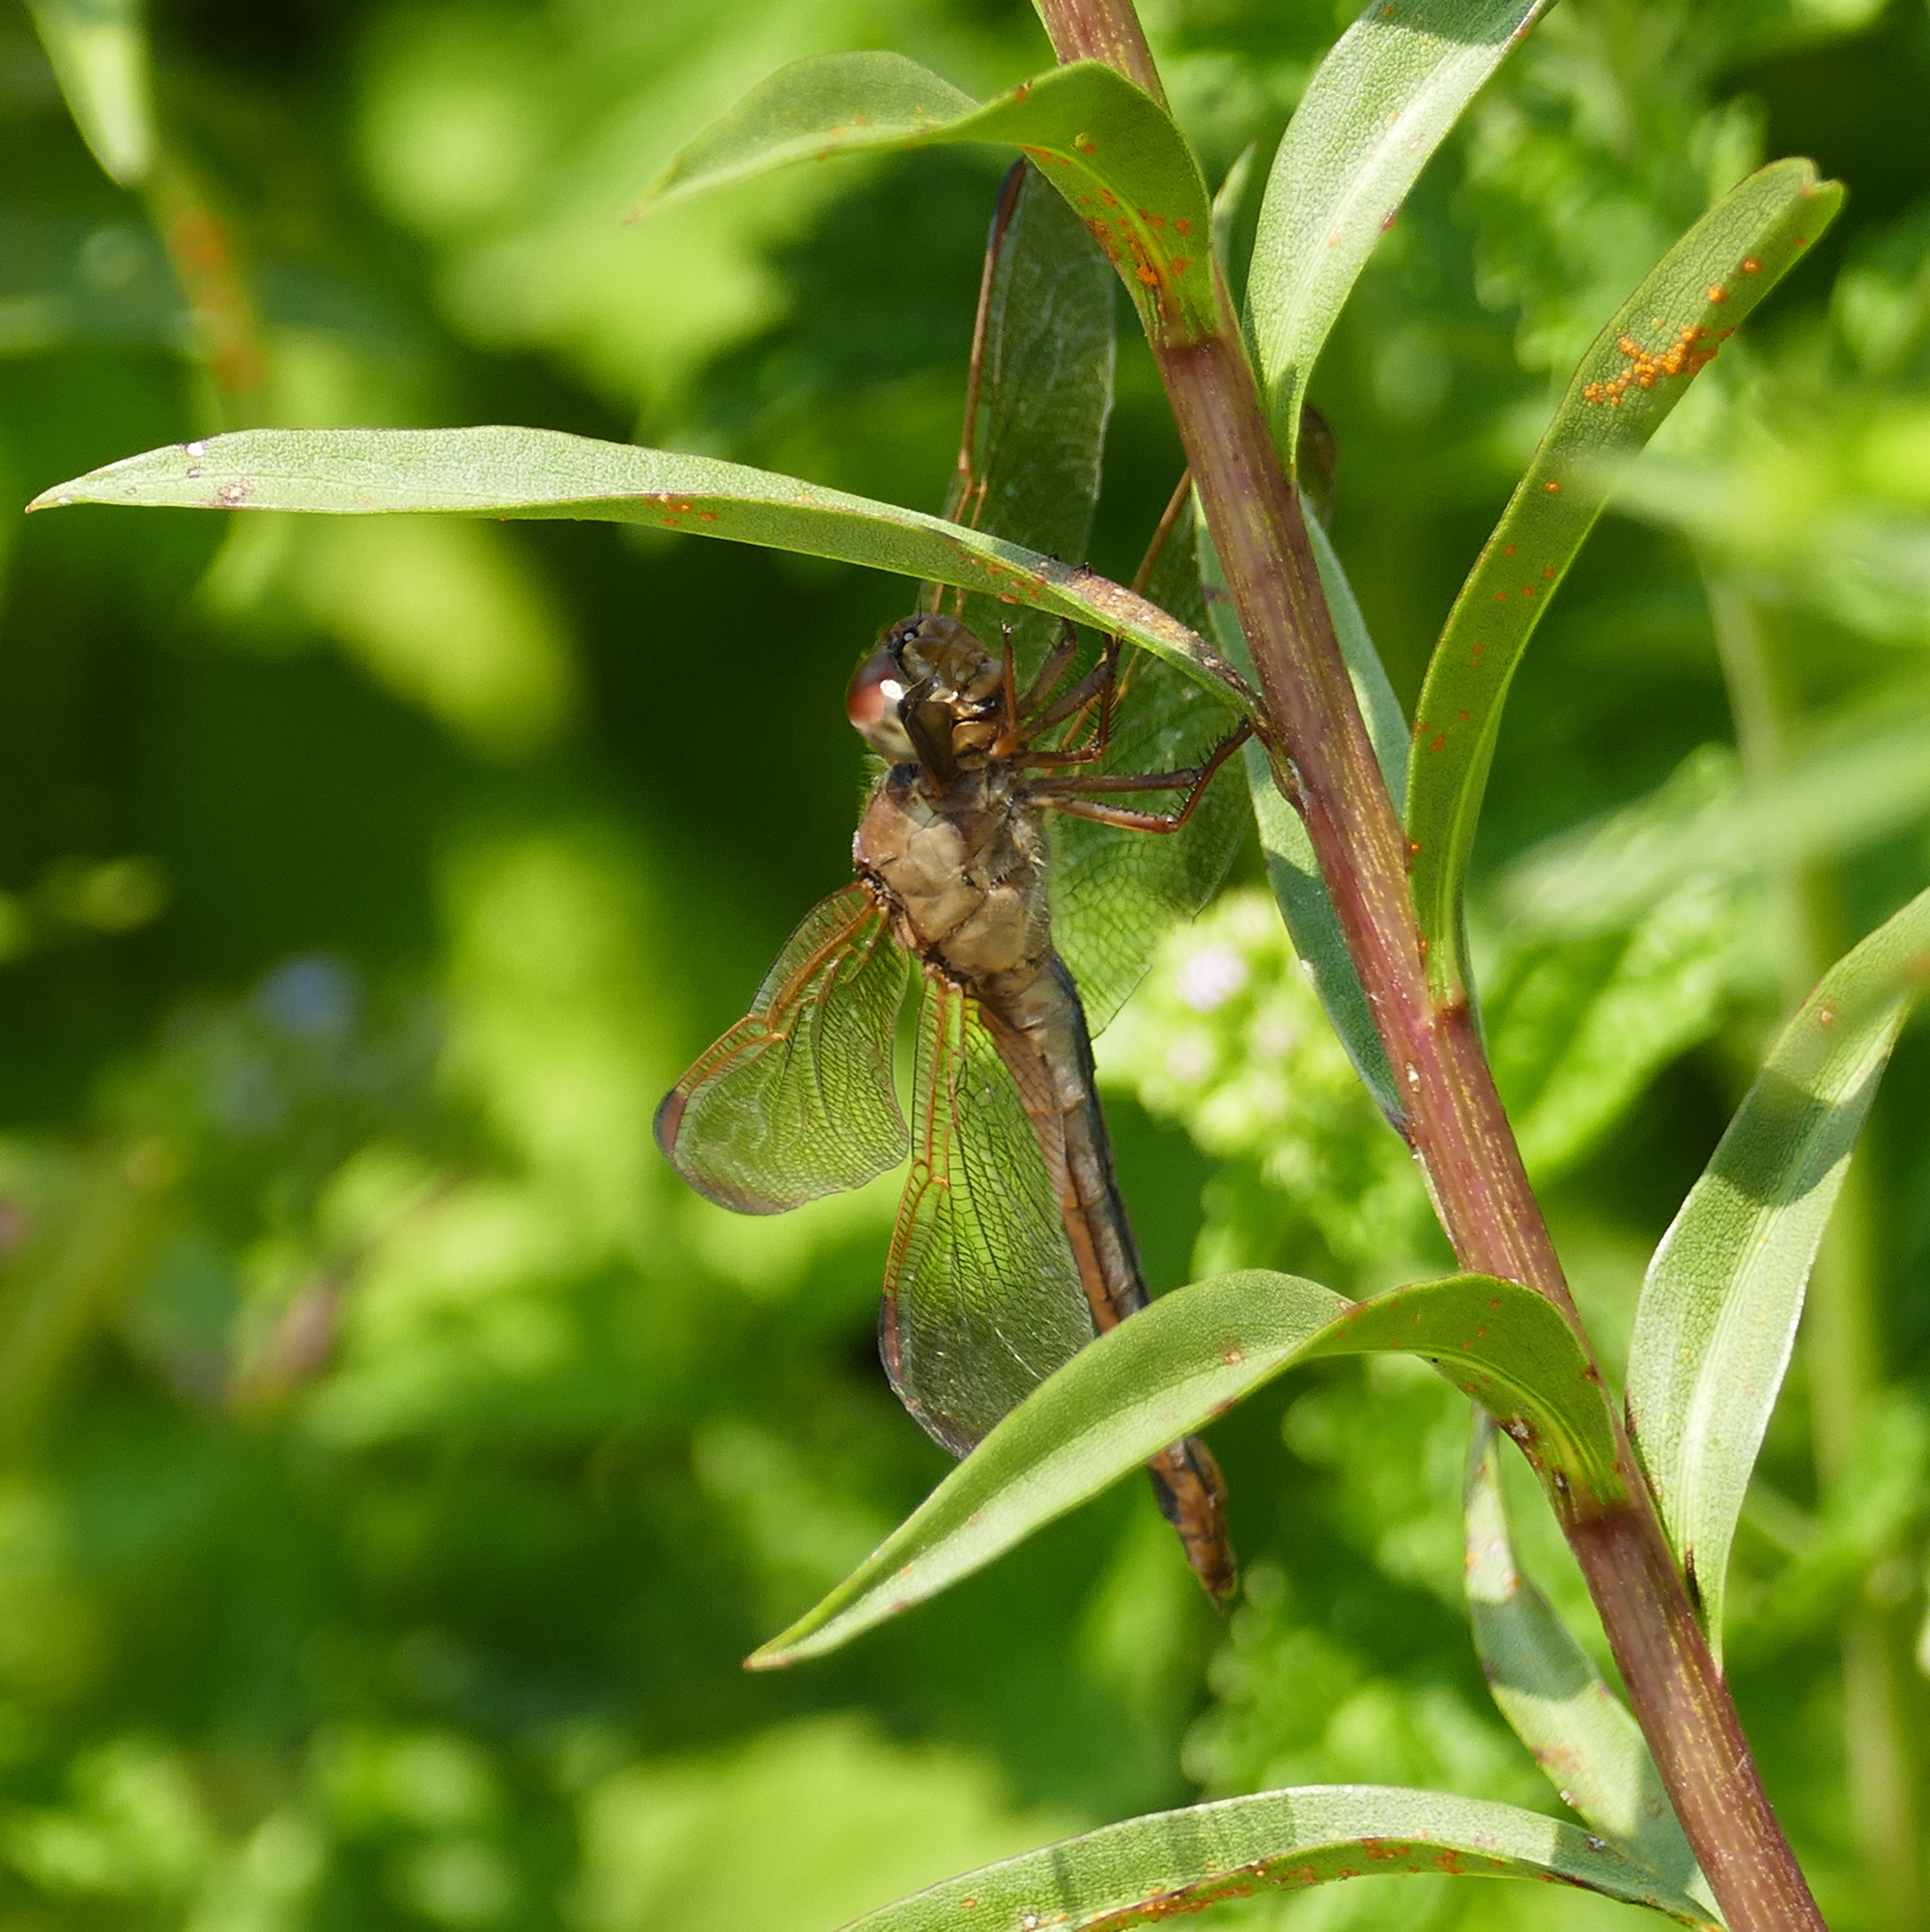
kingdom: Animalia
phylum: Arthropoda
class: Insecta
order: Odonata
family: Libellulidae
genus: Libellula
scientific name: Libellula needhami
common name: Needham's skimmer
